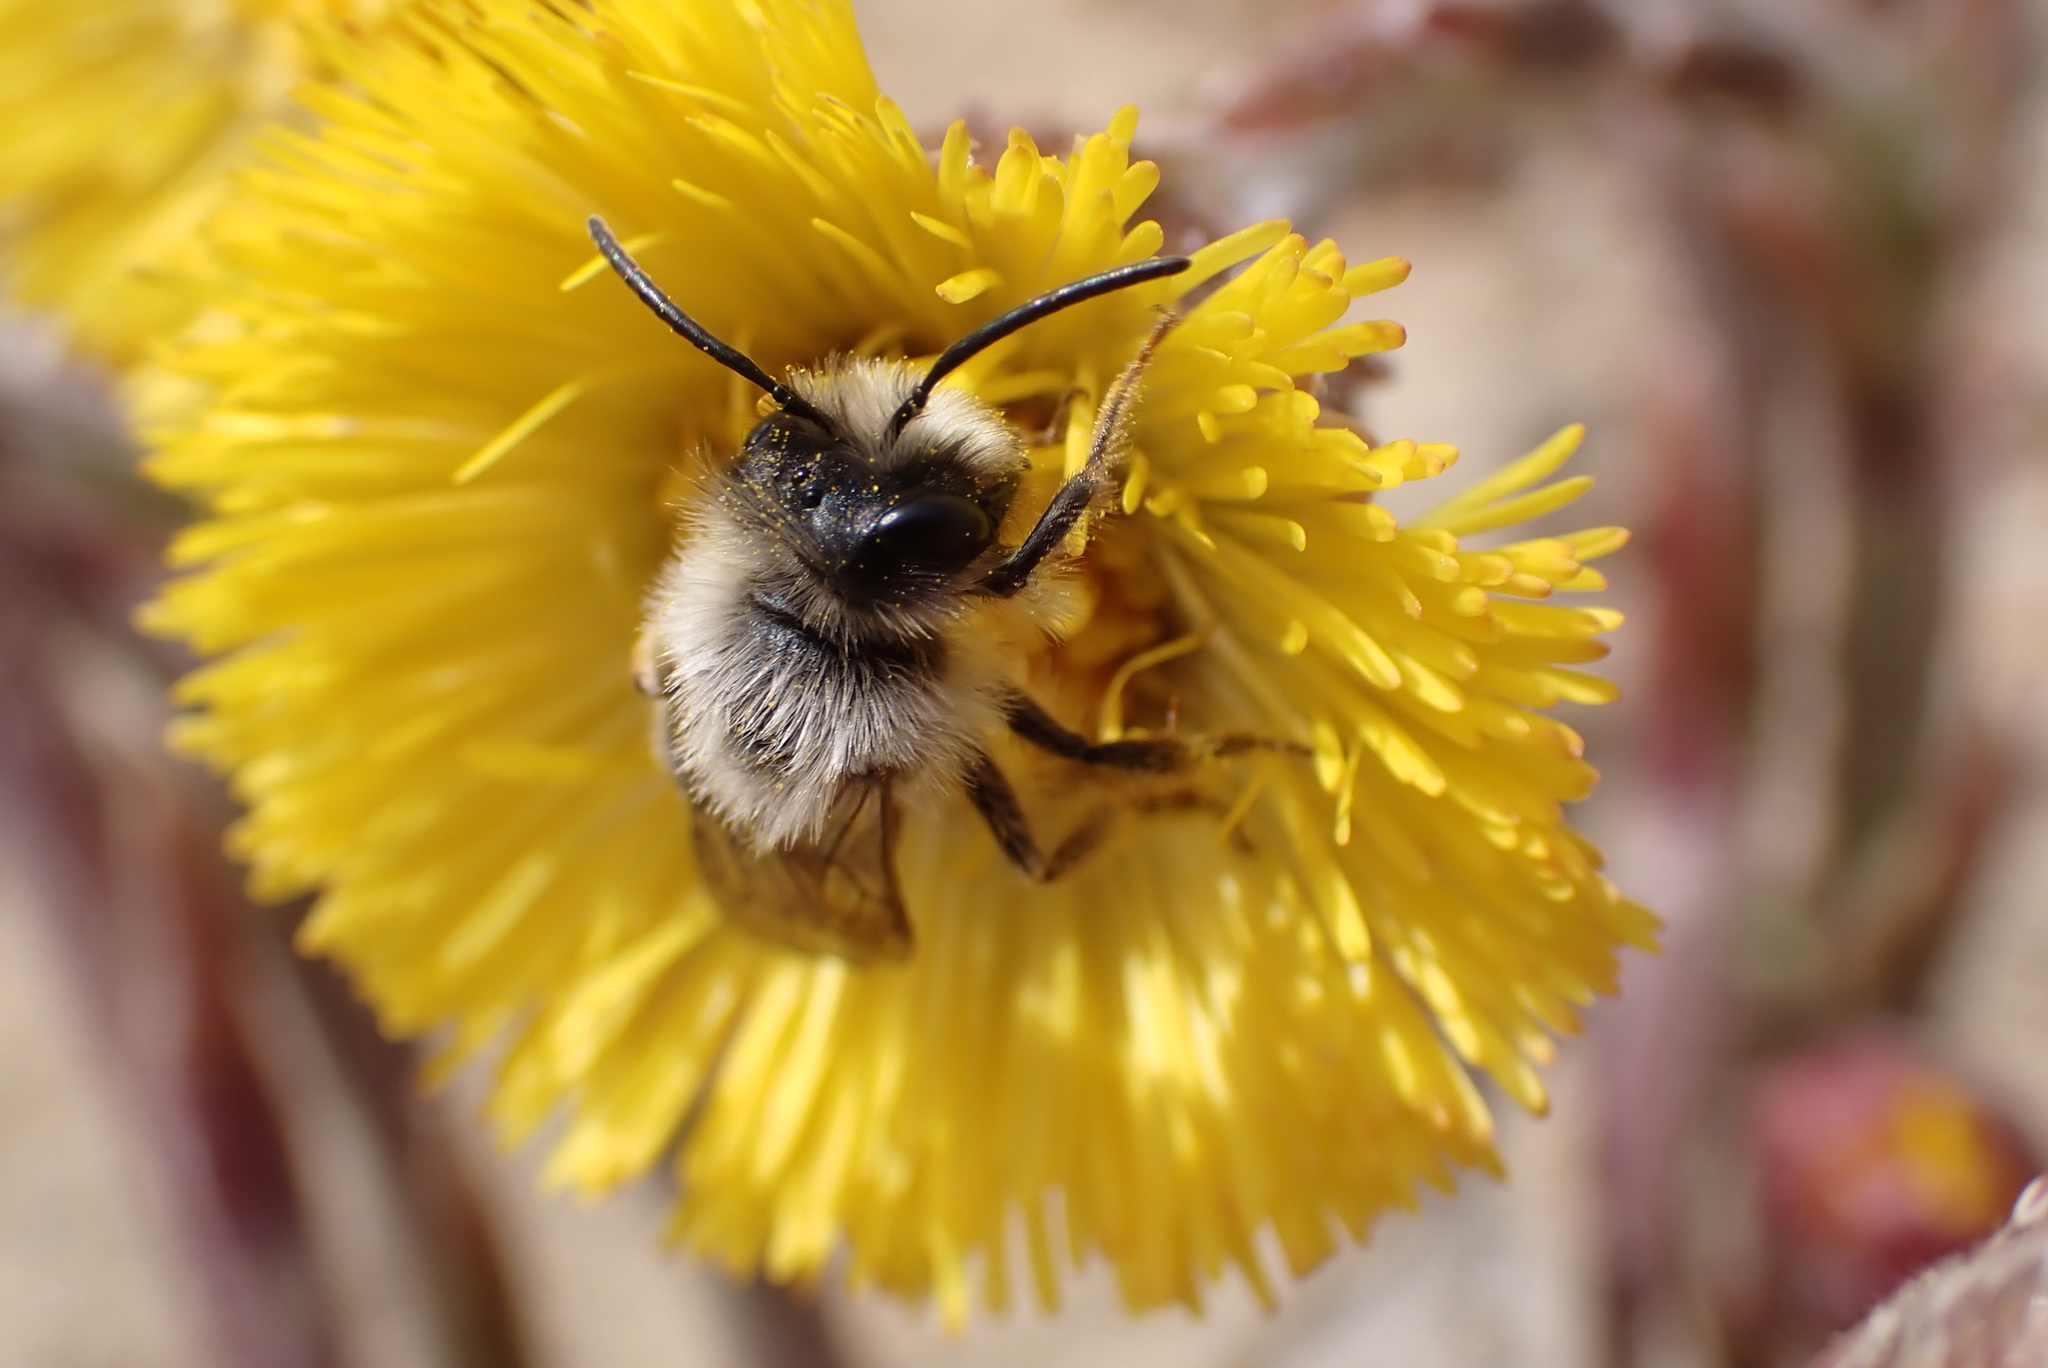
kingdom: Animalia
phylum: Arthropoda
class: Insecta
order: Hymenoptera
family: Andrenidae
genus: Andrena
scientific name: Andrena vaga
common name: Grey-backed mining bee
